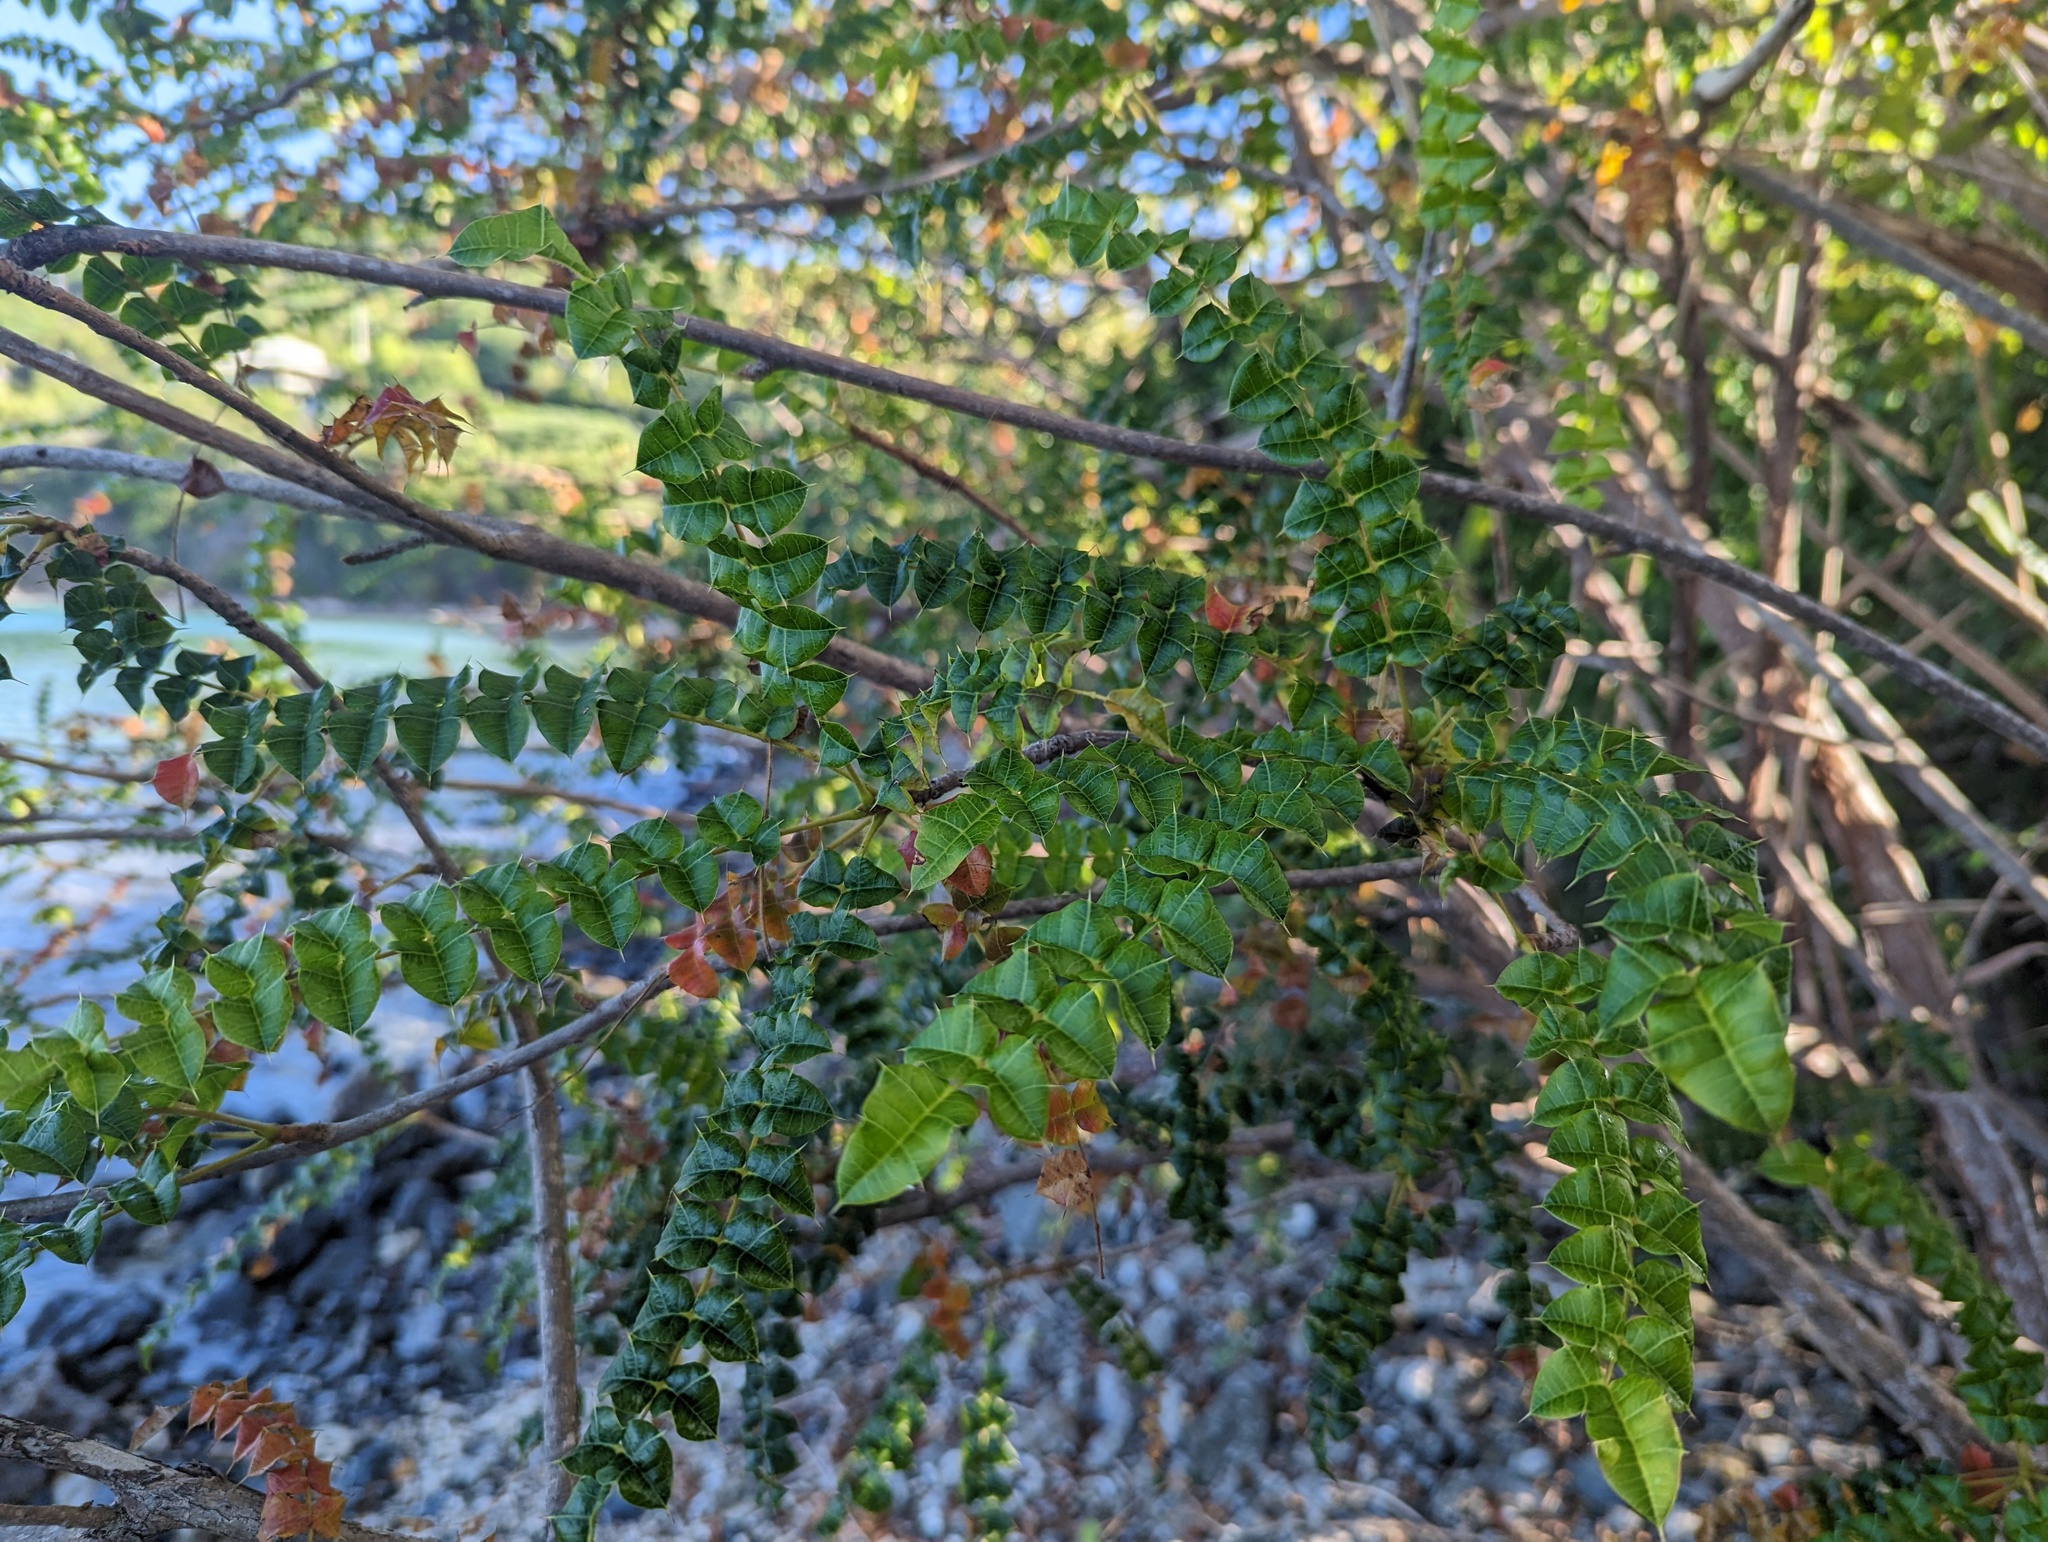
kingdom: Plantae
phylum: Tracheophyta
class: Magnoliopsida
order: Sapindales
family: Anacardiaceae
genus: Comocladia
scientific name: Comocladia dodonaea
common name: Poison ash
